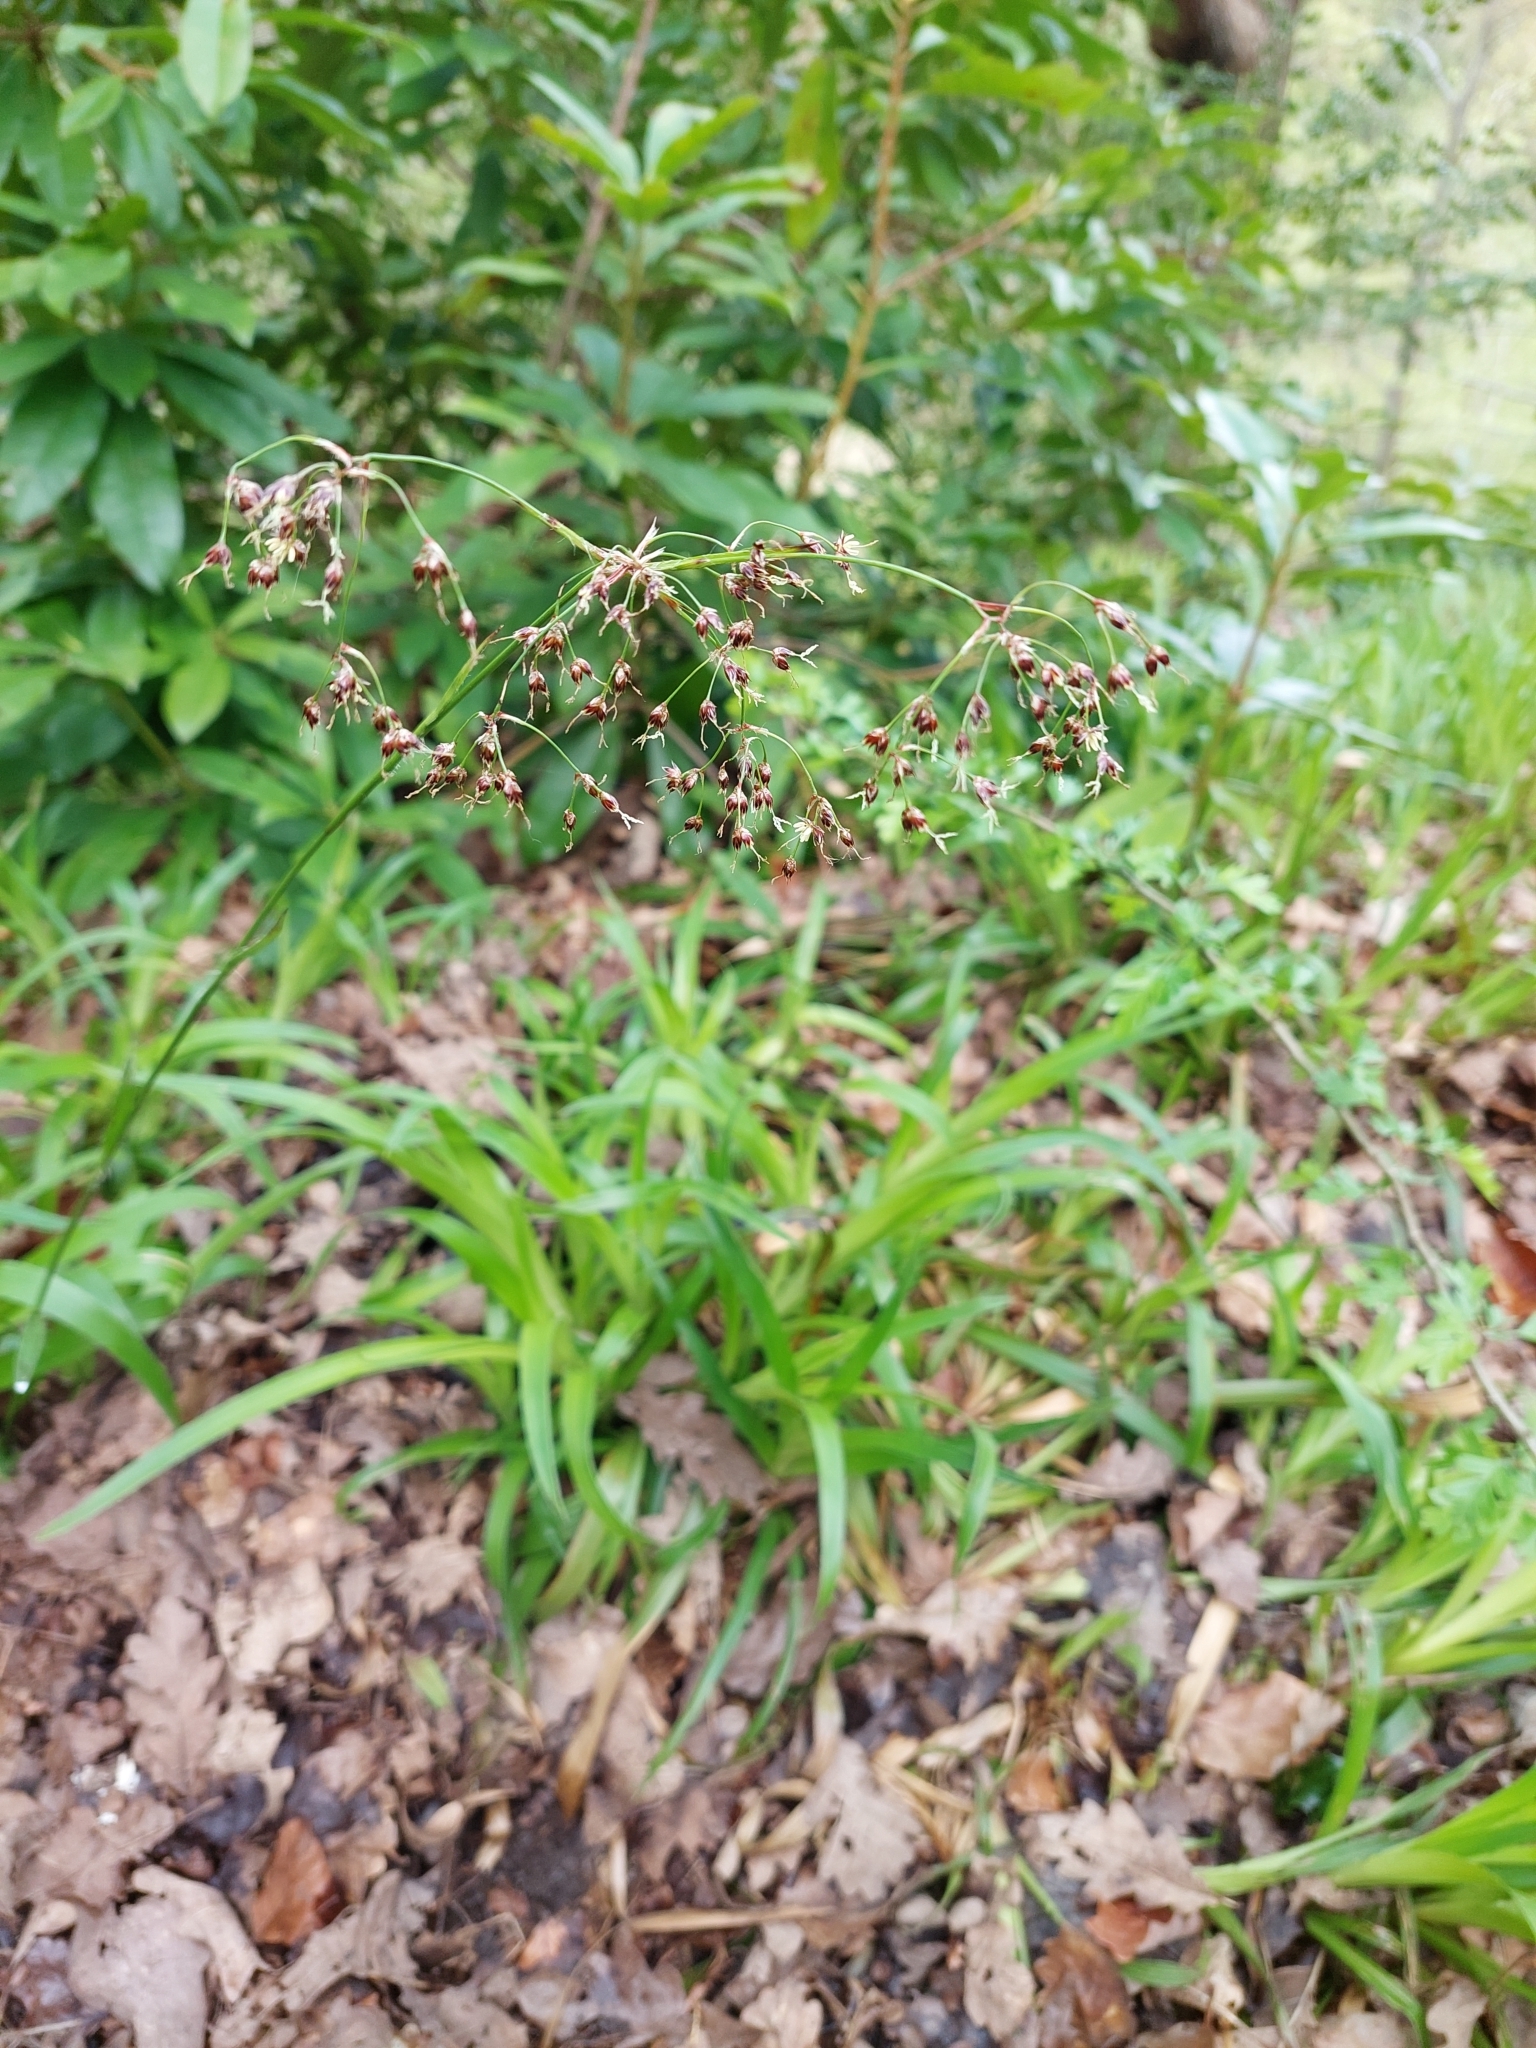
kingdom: Plantae
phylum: Tracheophyta
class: Liliopsida
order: Poales
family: Juncaceae
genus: Luzula
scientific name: Luzula sylvatica
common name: Great wood-rush
